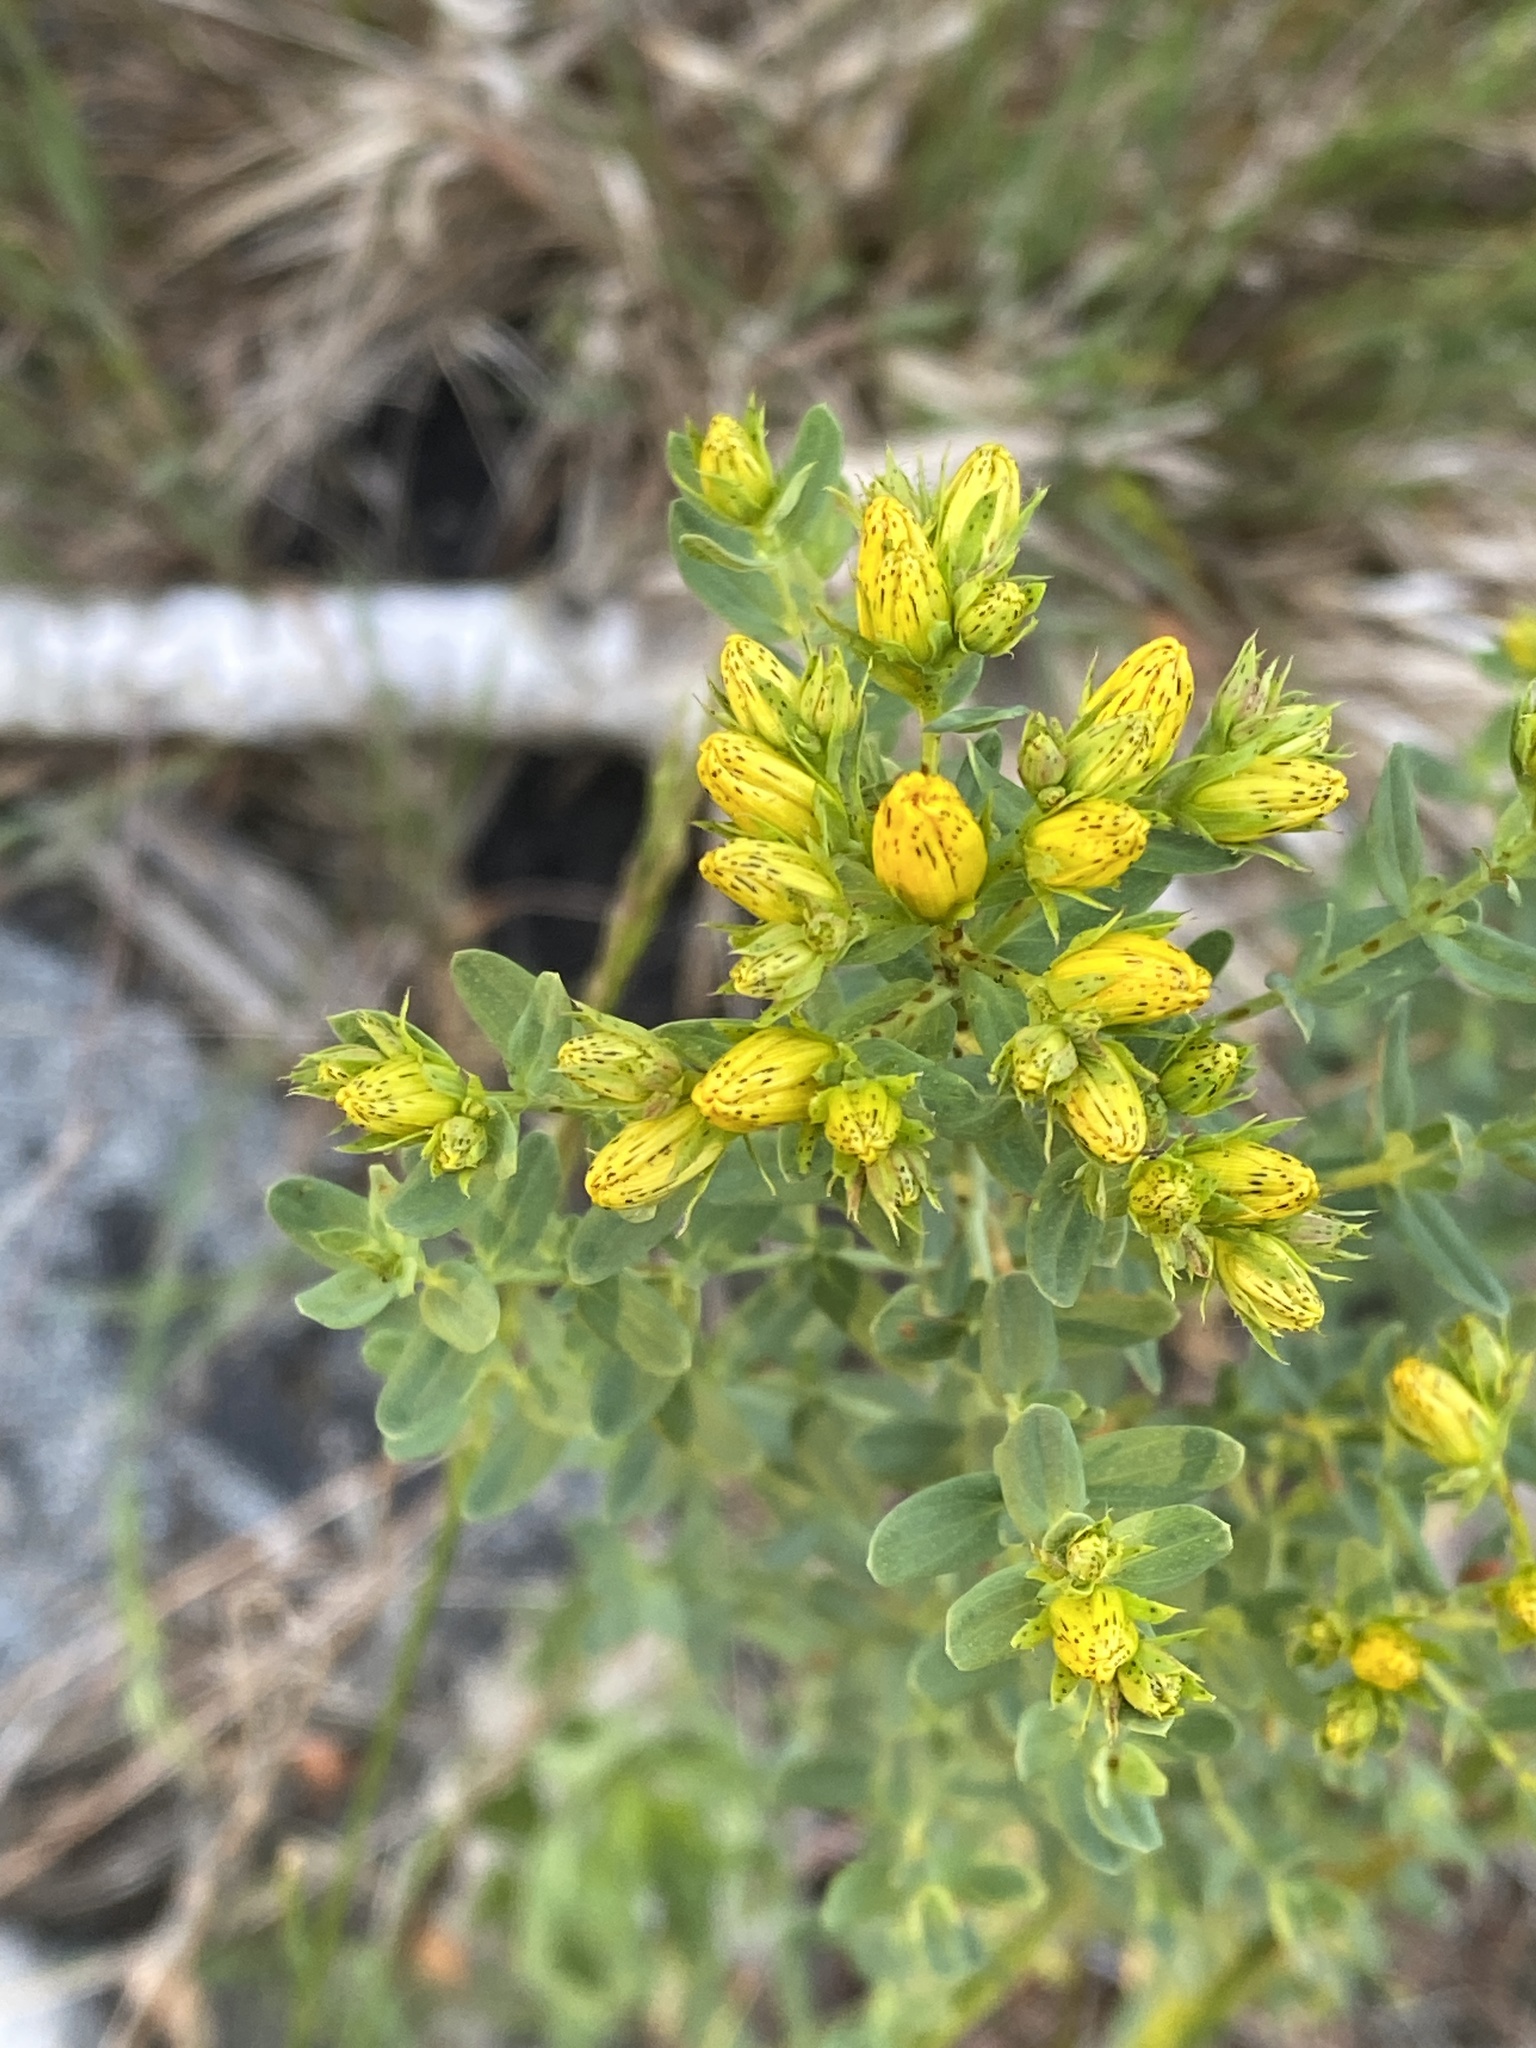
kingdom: Plantae
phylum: Tracheophyta
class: Magnoliopsida
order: Malpighiales
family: Hypericaceae
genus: Hypericum
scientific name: Hypericum perforatum
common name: Common st. johnswort
